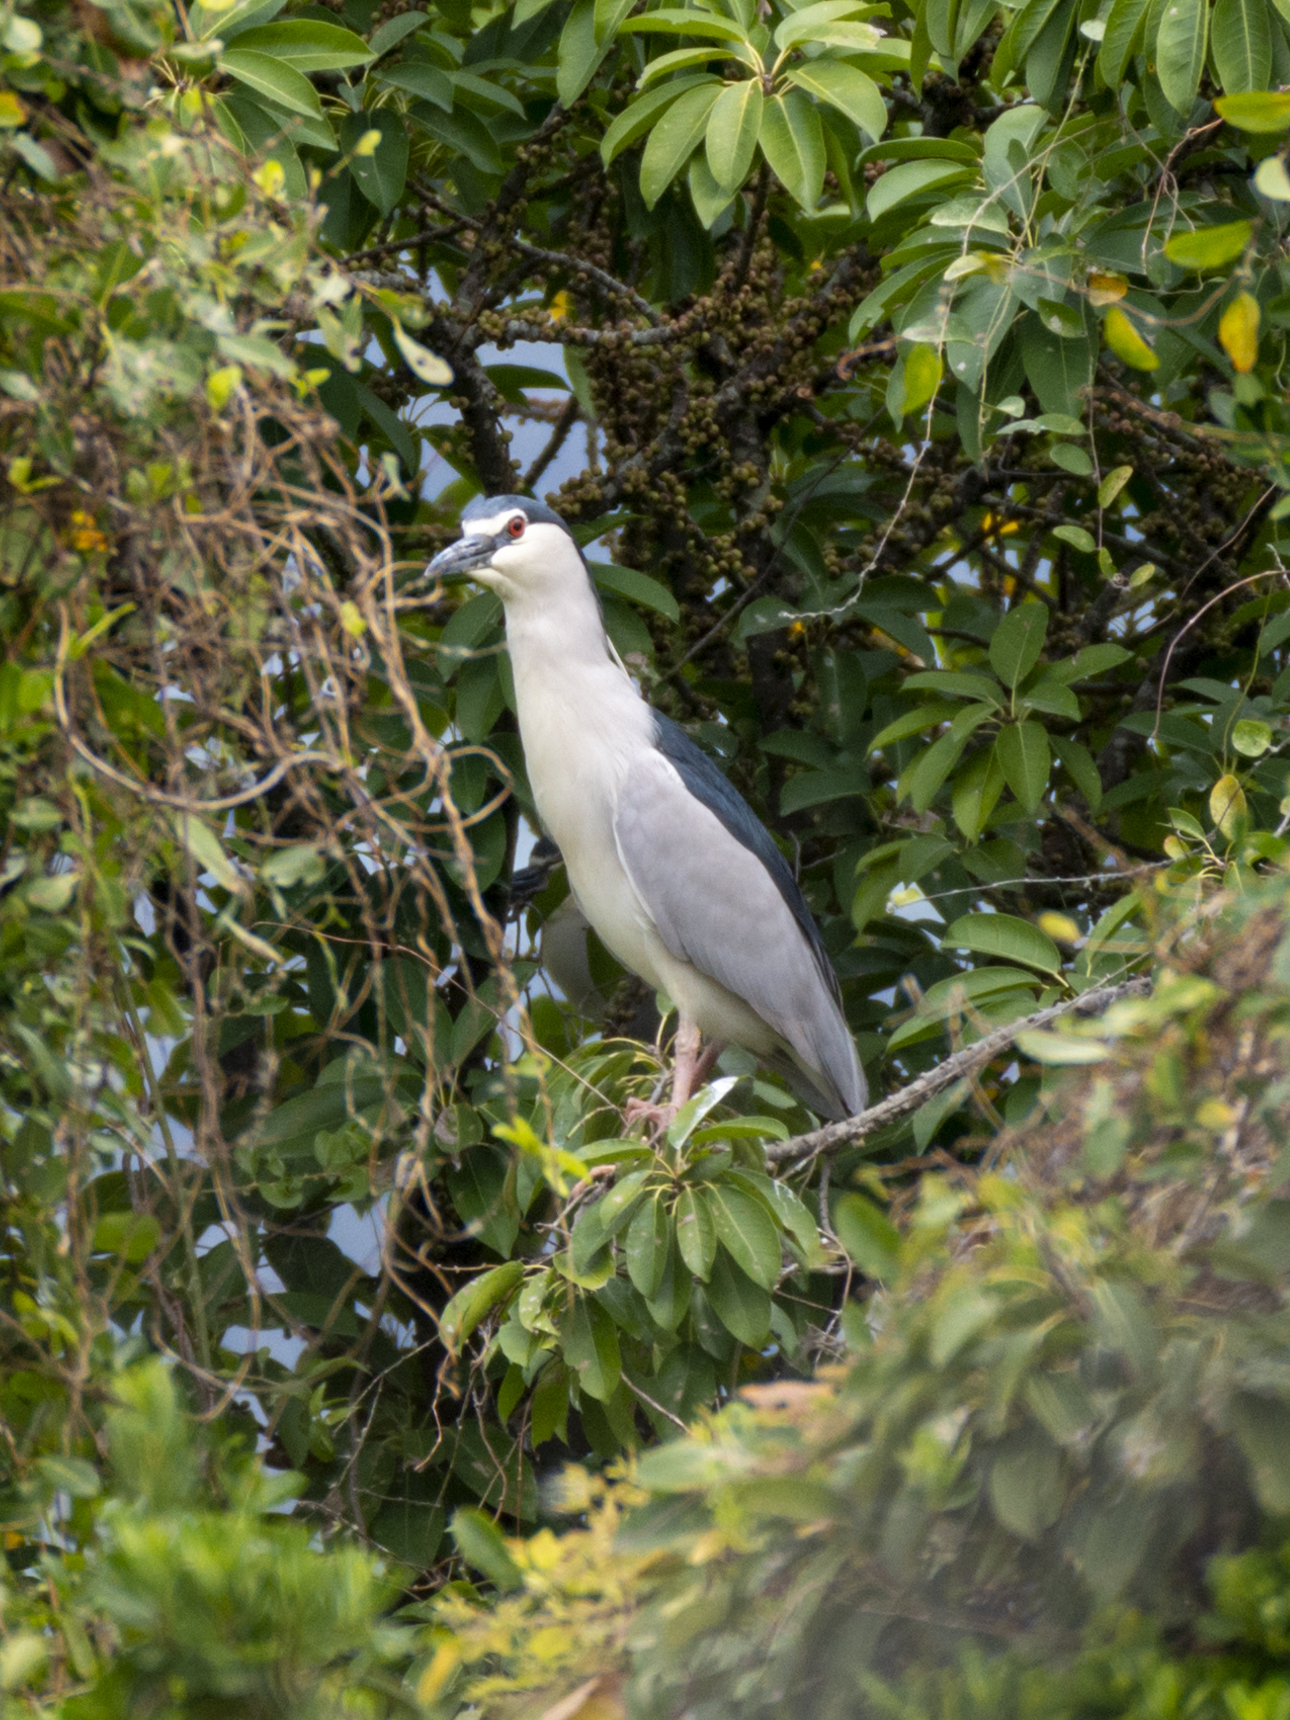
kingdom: Animalia
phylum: Chordata
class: Aves
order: Pelecaniformes
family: Ardeidae
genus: Nycticorax
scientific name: Nycticorax nycticorax
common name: Black-crowned night heron
